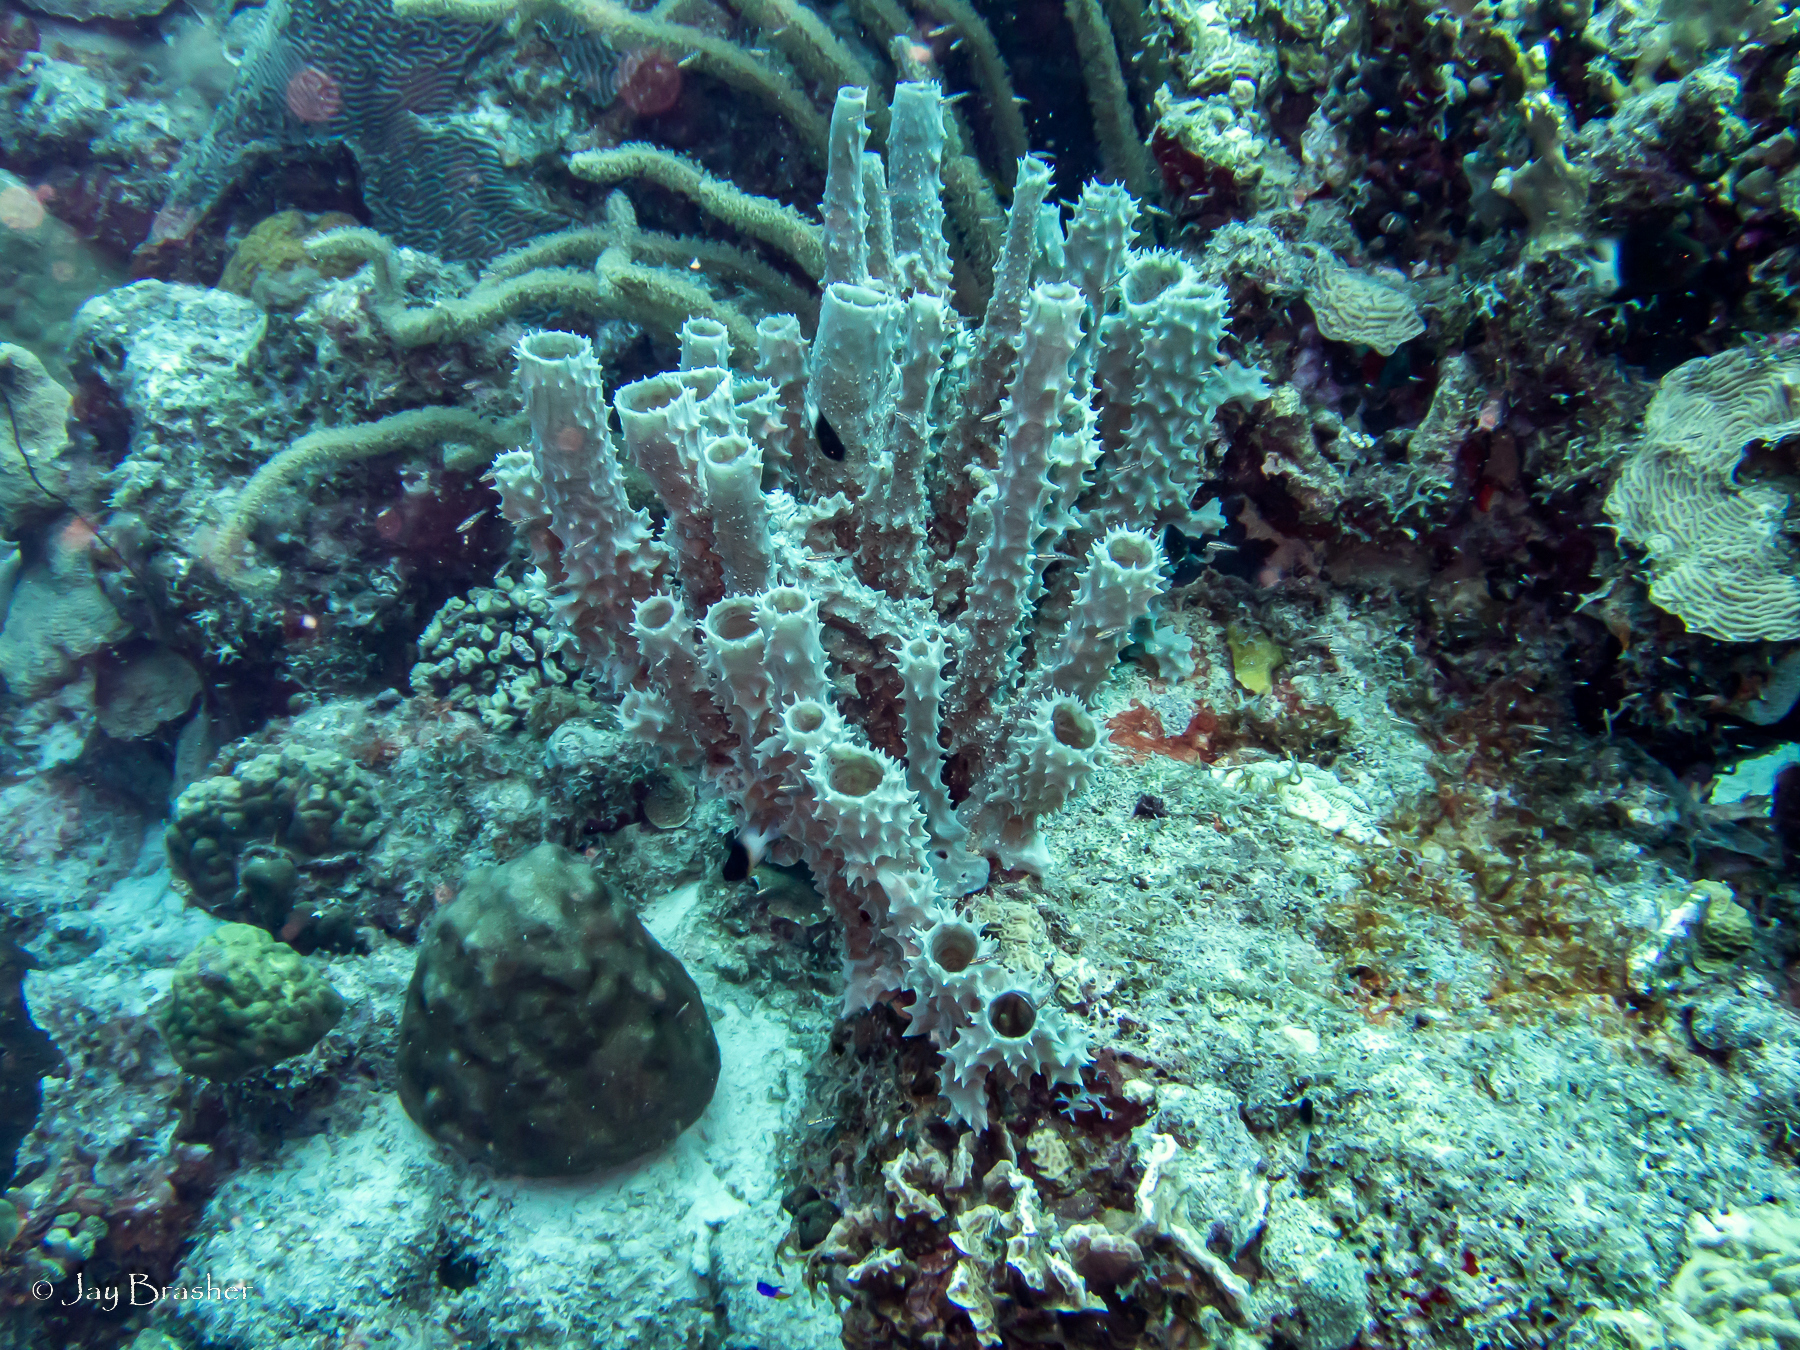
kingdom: Animalia
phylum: Porifera
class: Demospongiae
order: Haplosclerida
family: Callyspongiidae
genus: Callyspongia
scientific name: Callyspongia aculeata
